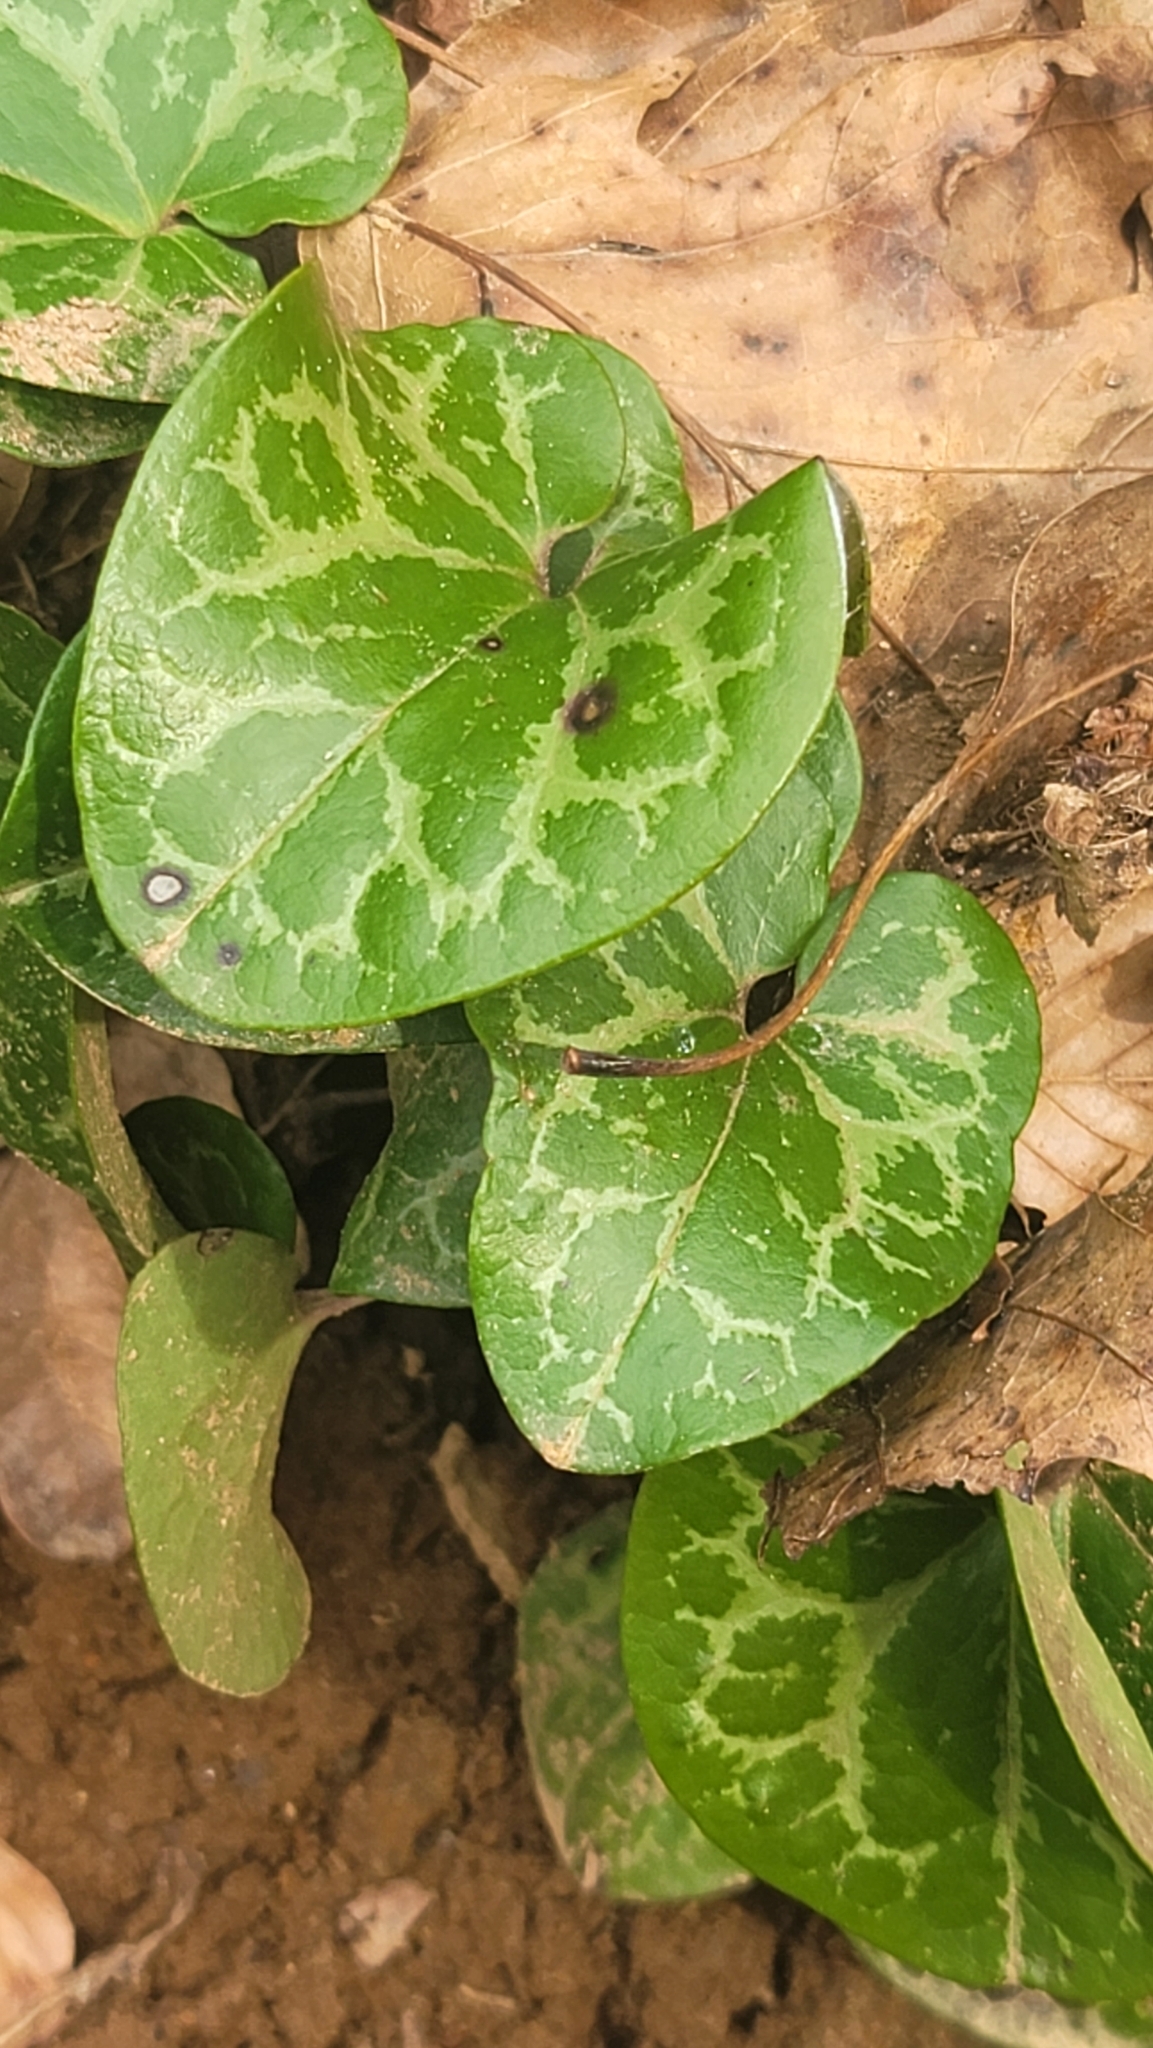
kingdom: Plantae
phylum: Tracheophyta
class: Magnoliopsida
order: Piperales
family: Aristolochiaceae
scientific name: Aristolochiaceae
